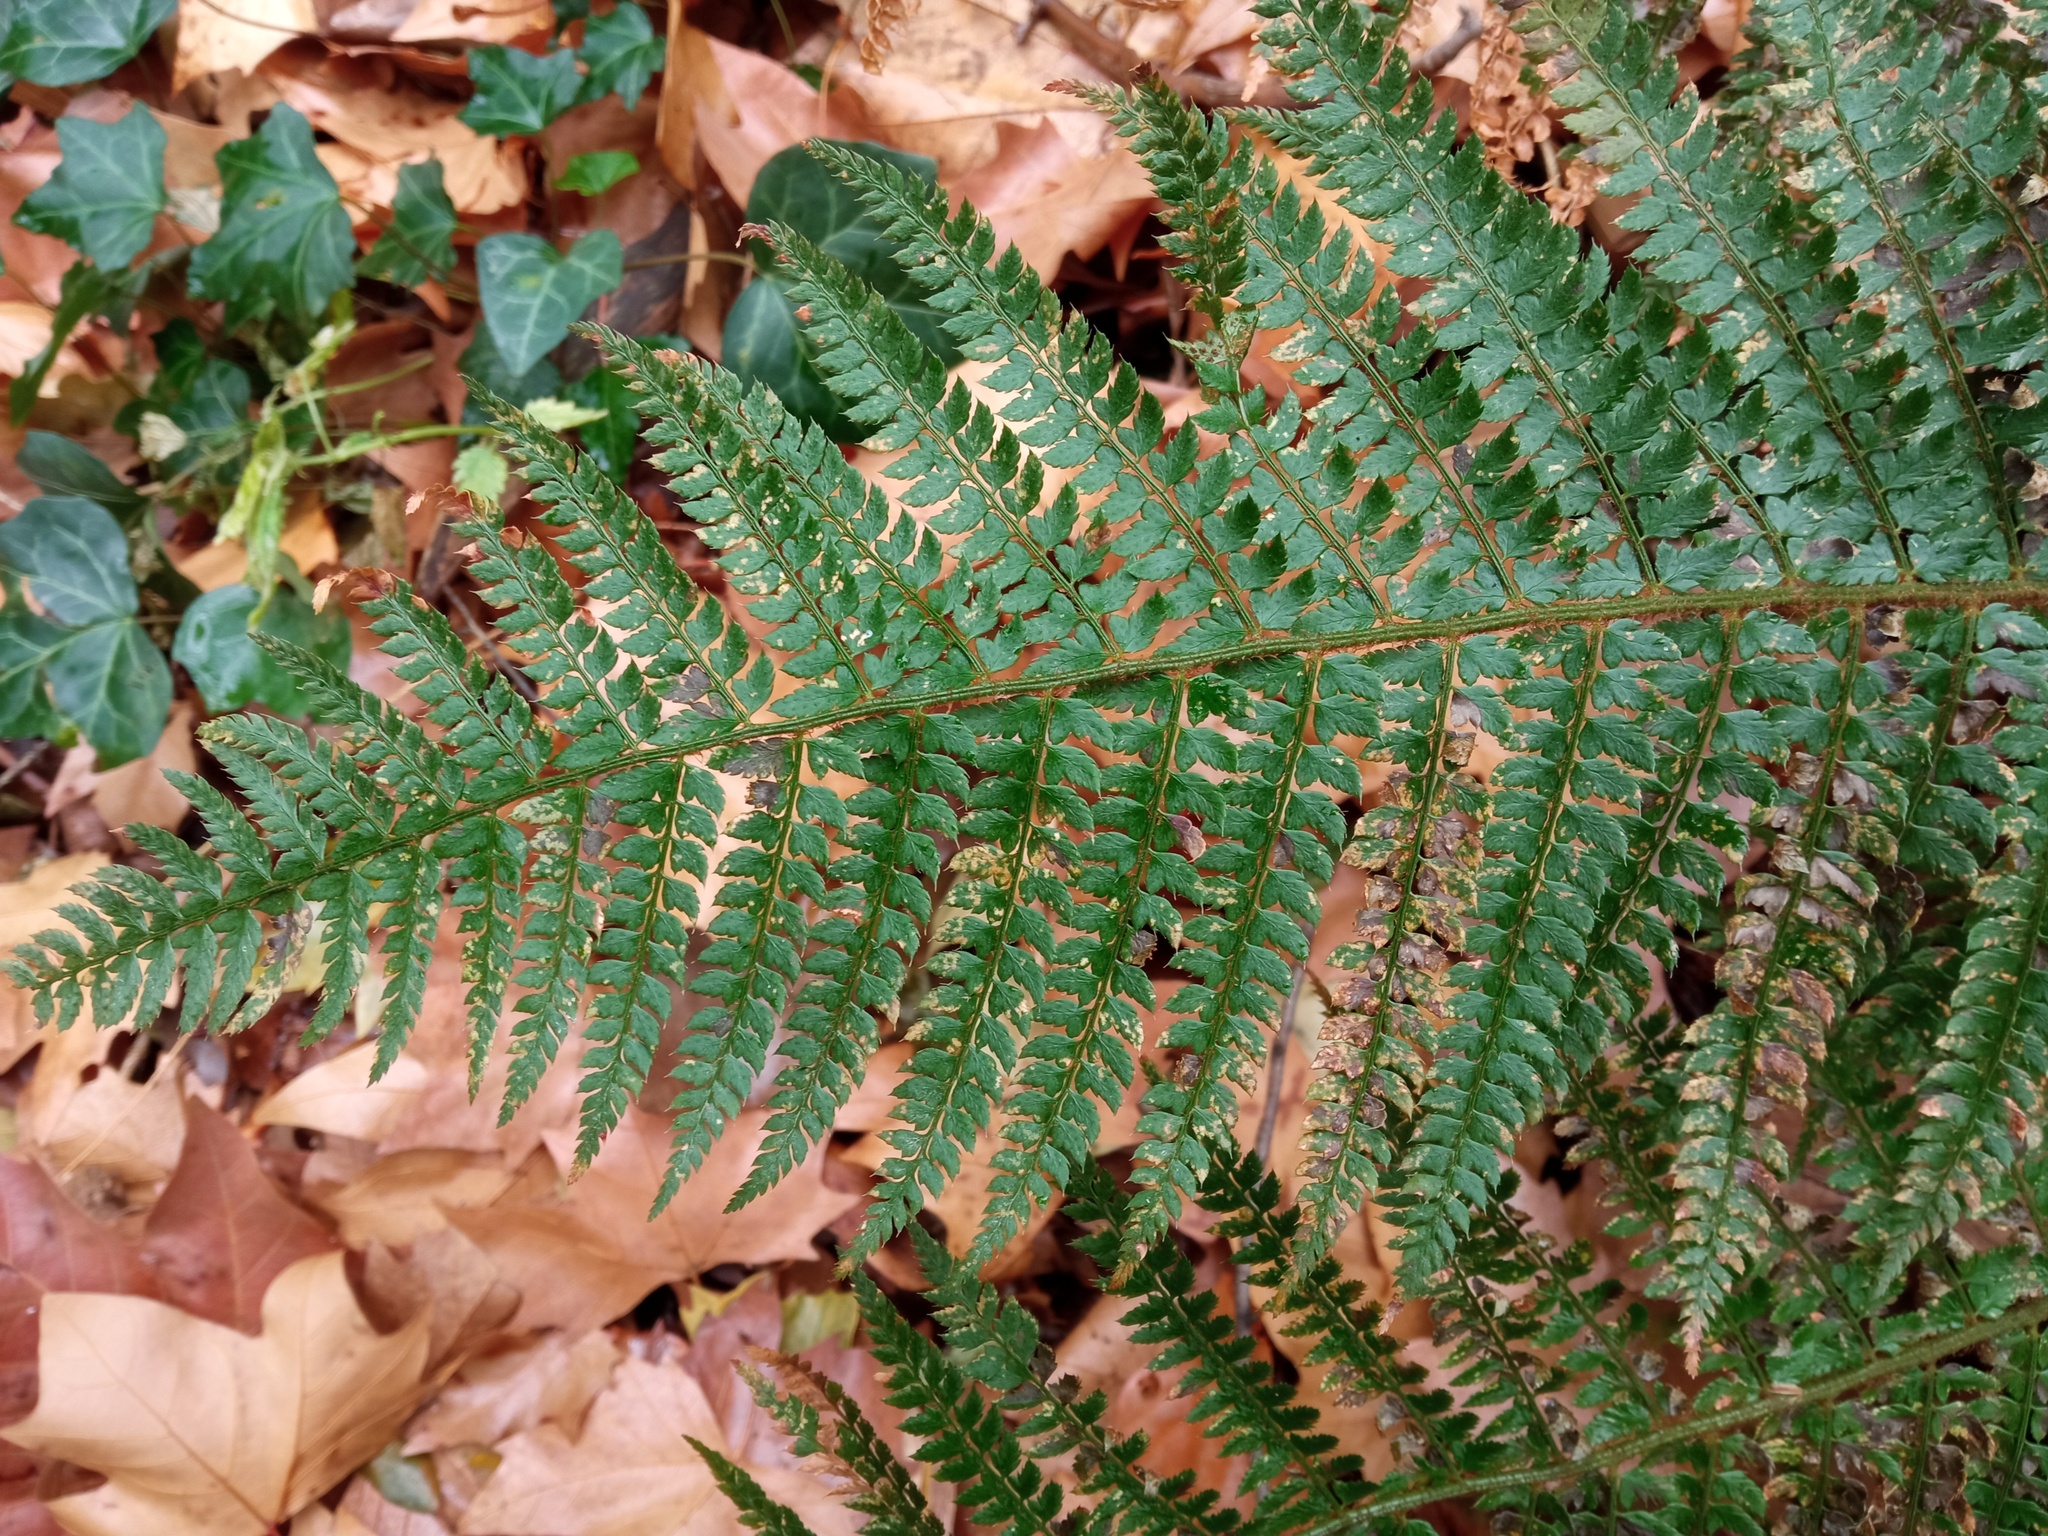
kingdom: Plantae
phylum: Tracheophyta
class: Polypodiopsida
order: Polypodiales
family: Dryopteridaceae
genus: Polystichum
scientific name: Polystichum setiferum
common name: Soft shield-fern
